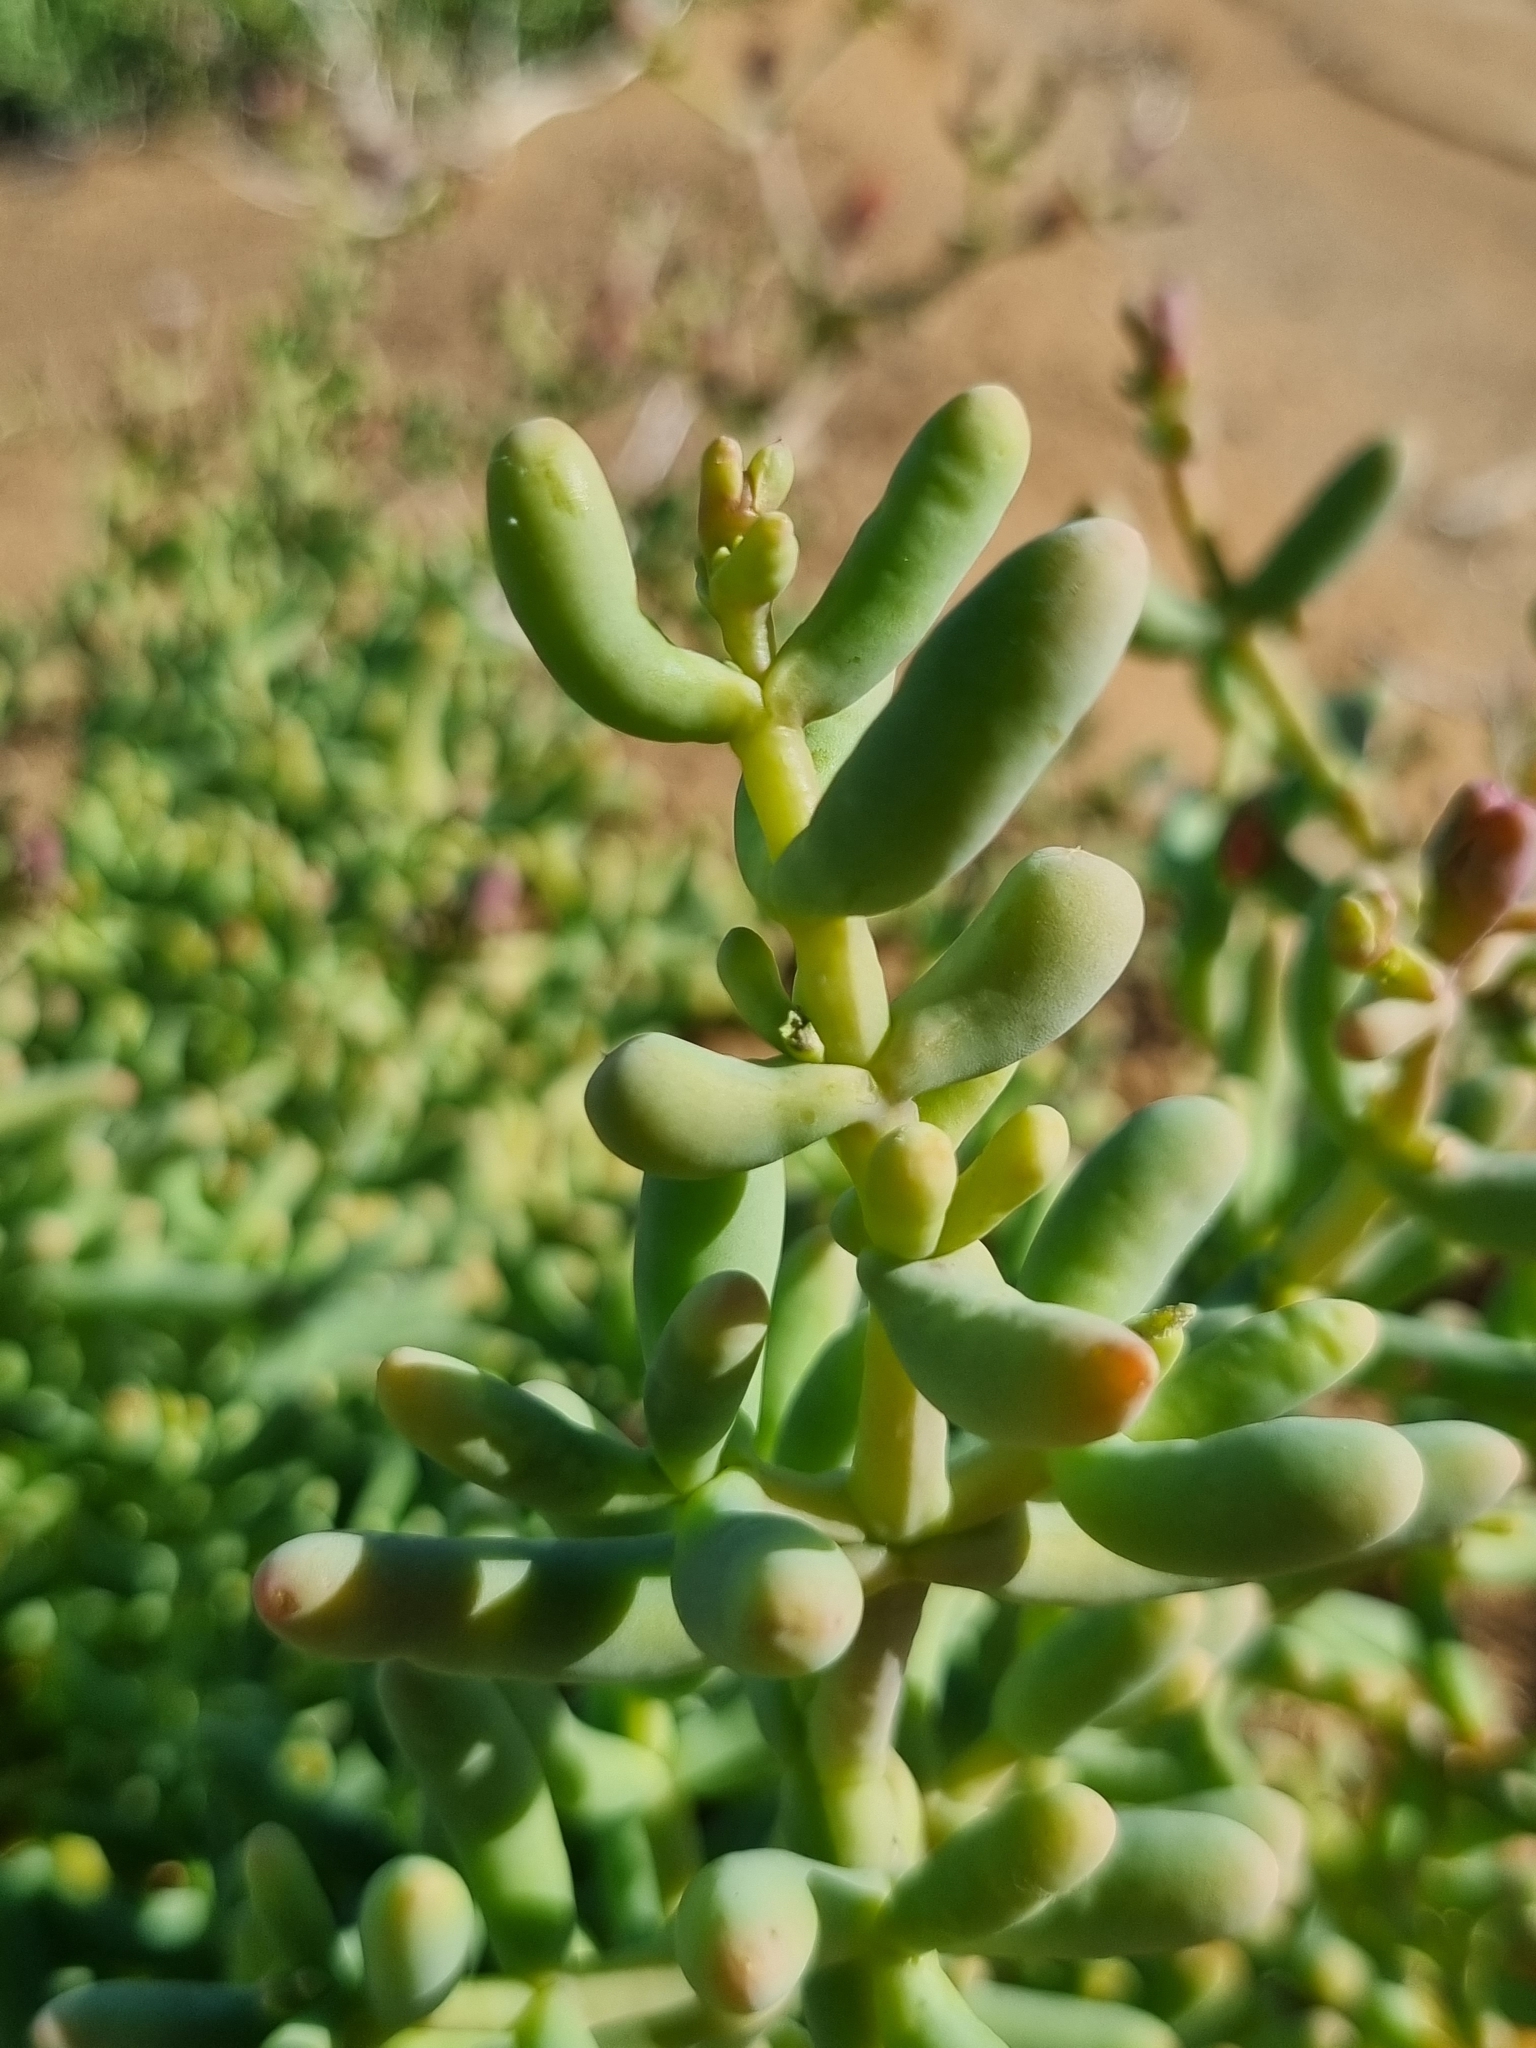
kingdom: Plantae
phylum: Tracheophyta
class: Magnoliopsida
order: Caryophyllales
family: Aizoaceae
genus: Mesembryanthemum
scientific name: Mesembryanthemum subnodosum
